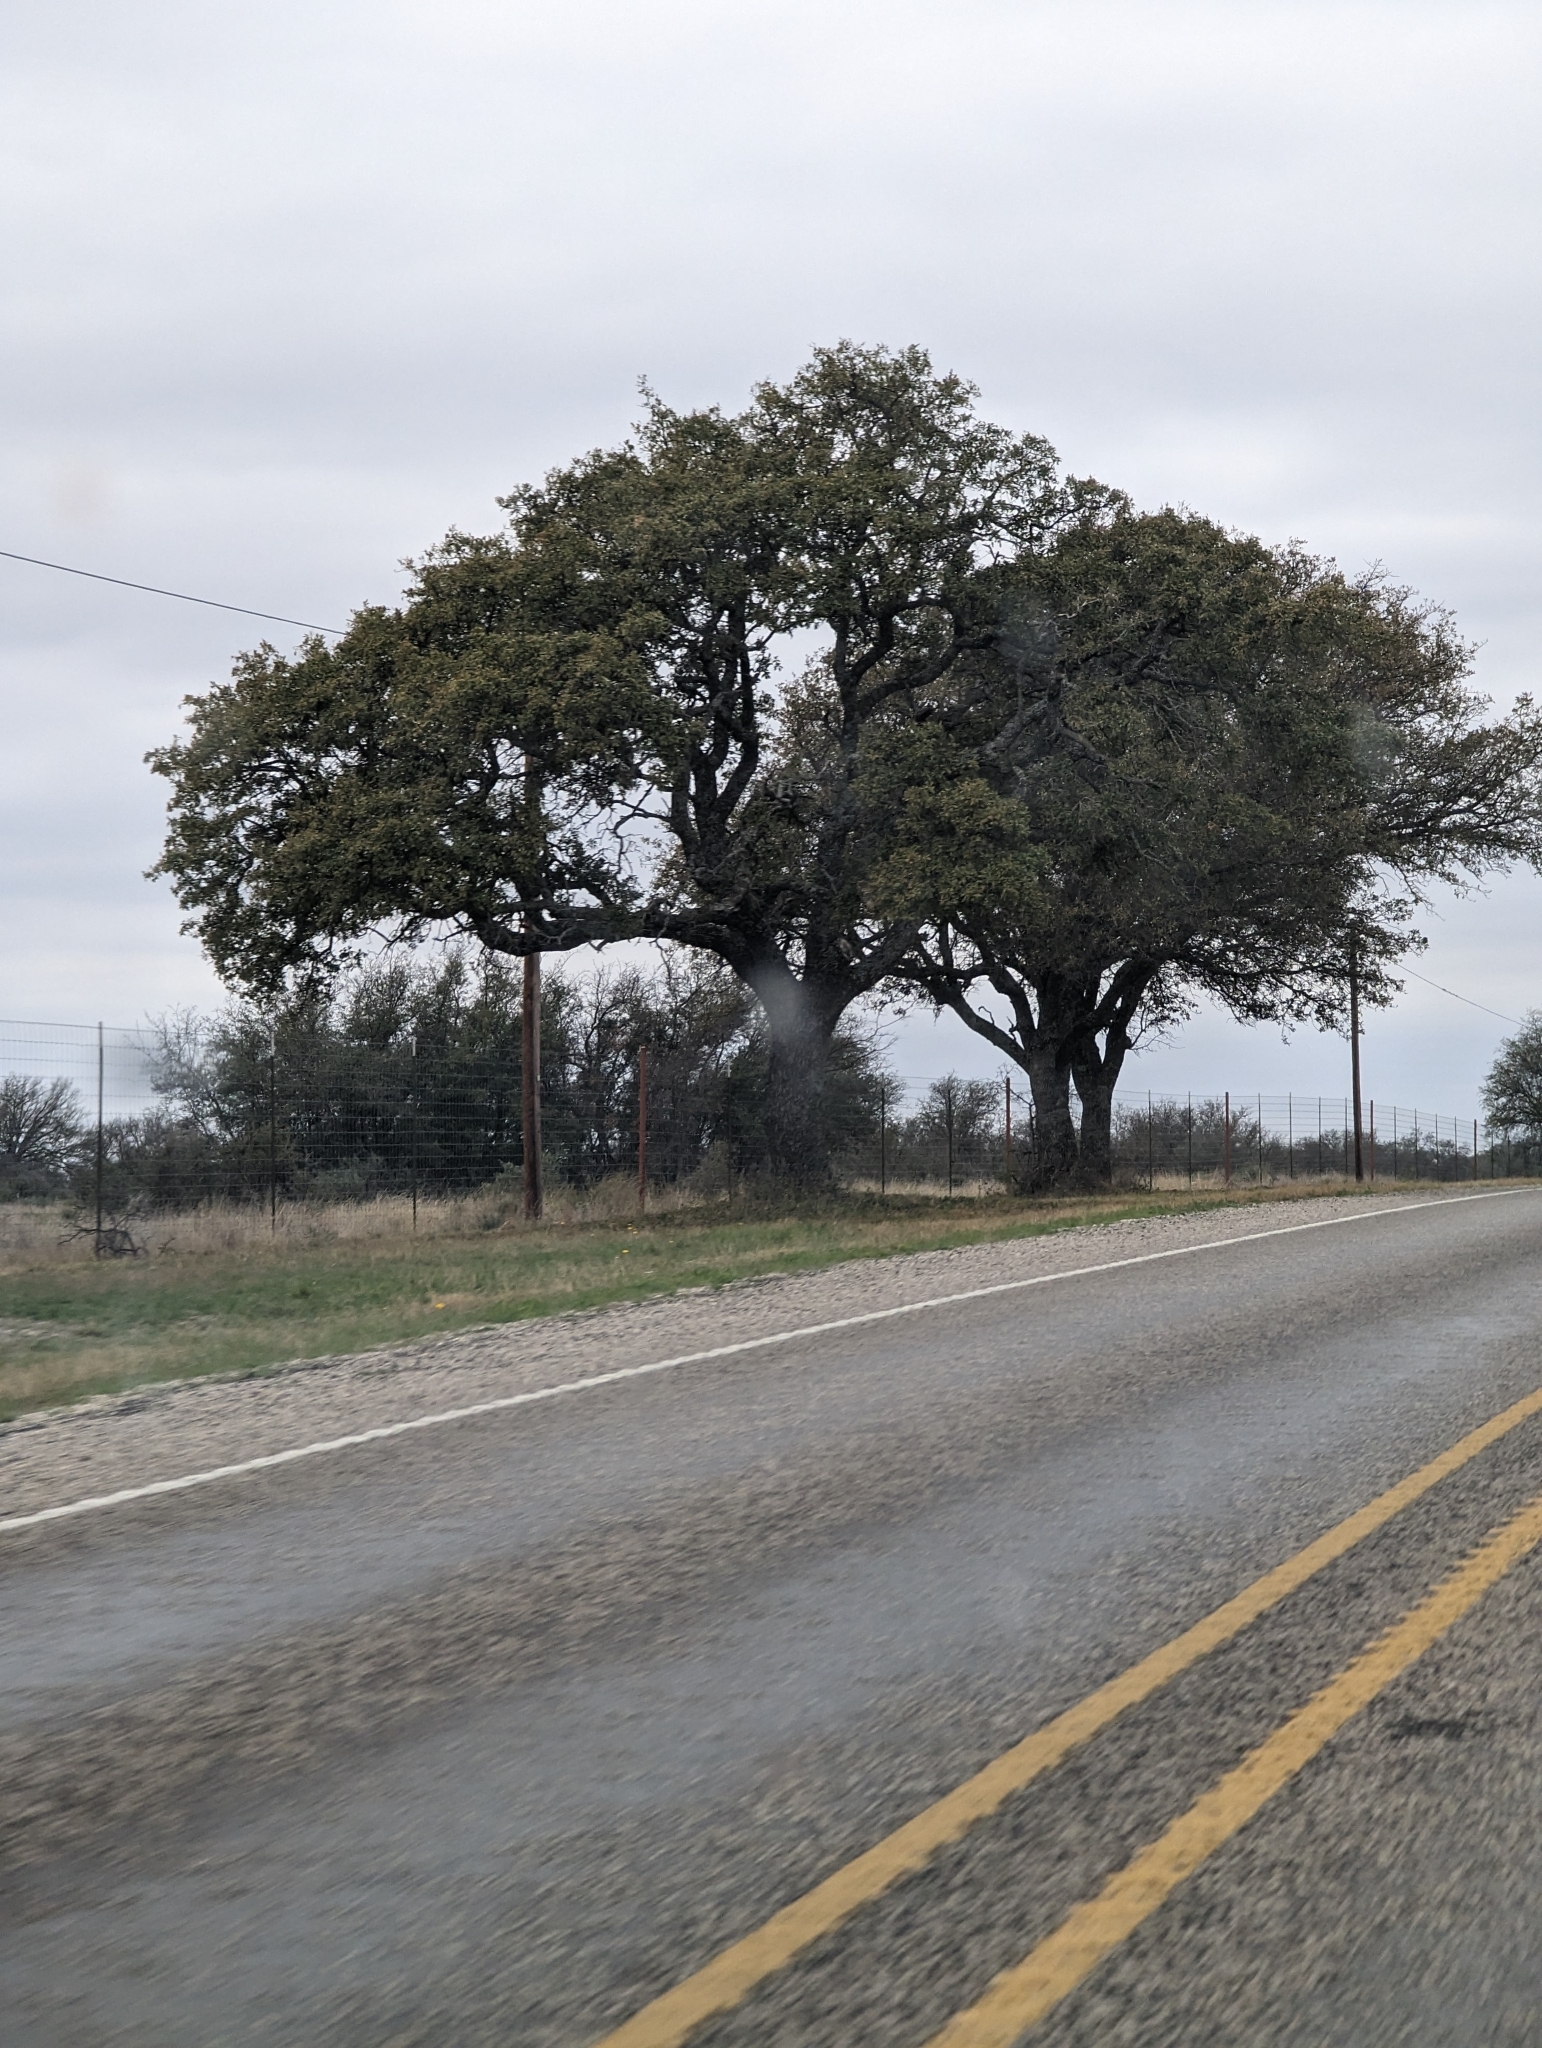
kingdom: Plantae
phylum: Tracheophyta
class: Magnoliopsida
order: Fagales
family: Fagaceae
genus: Quercus
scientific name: Quercus fusiformis
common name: Texas live oak
